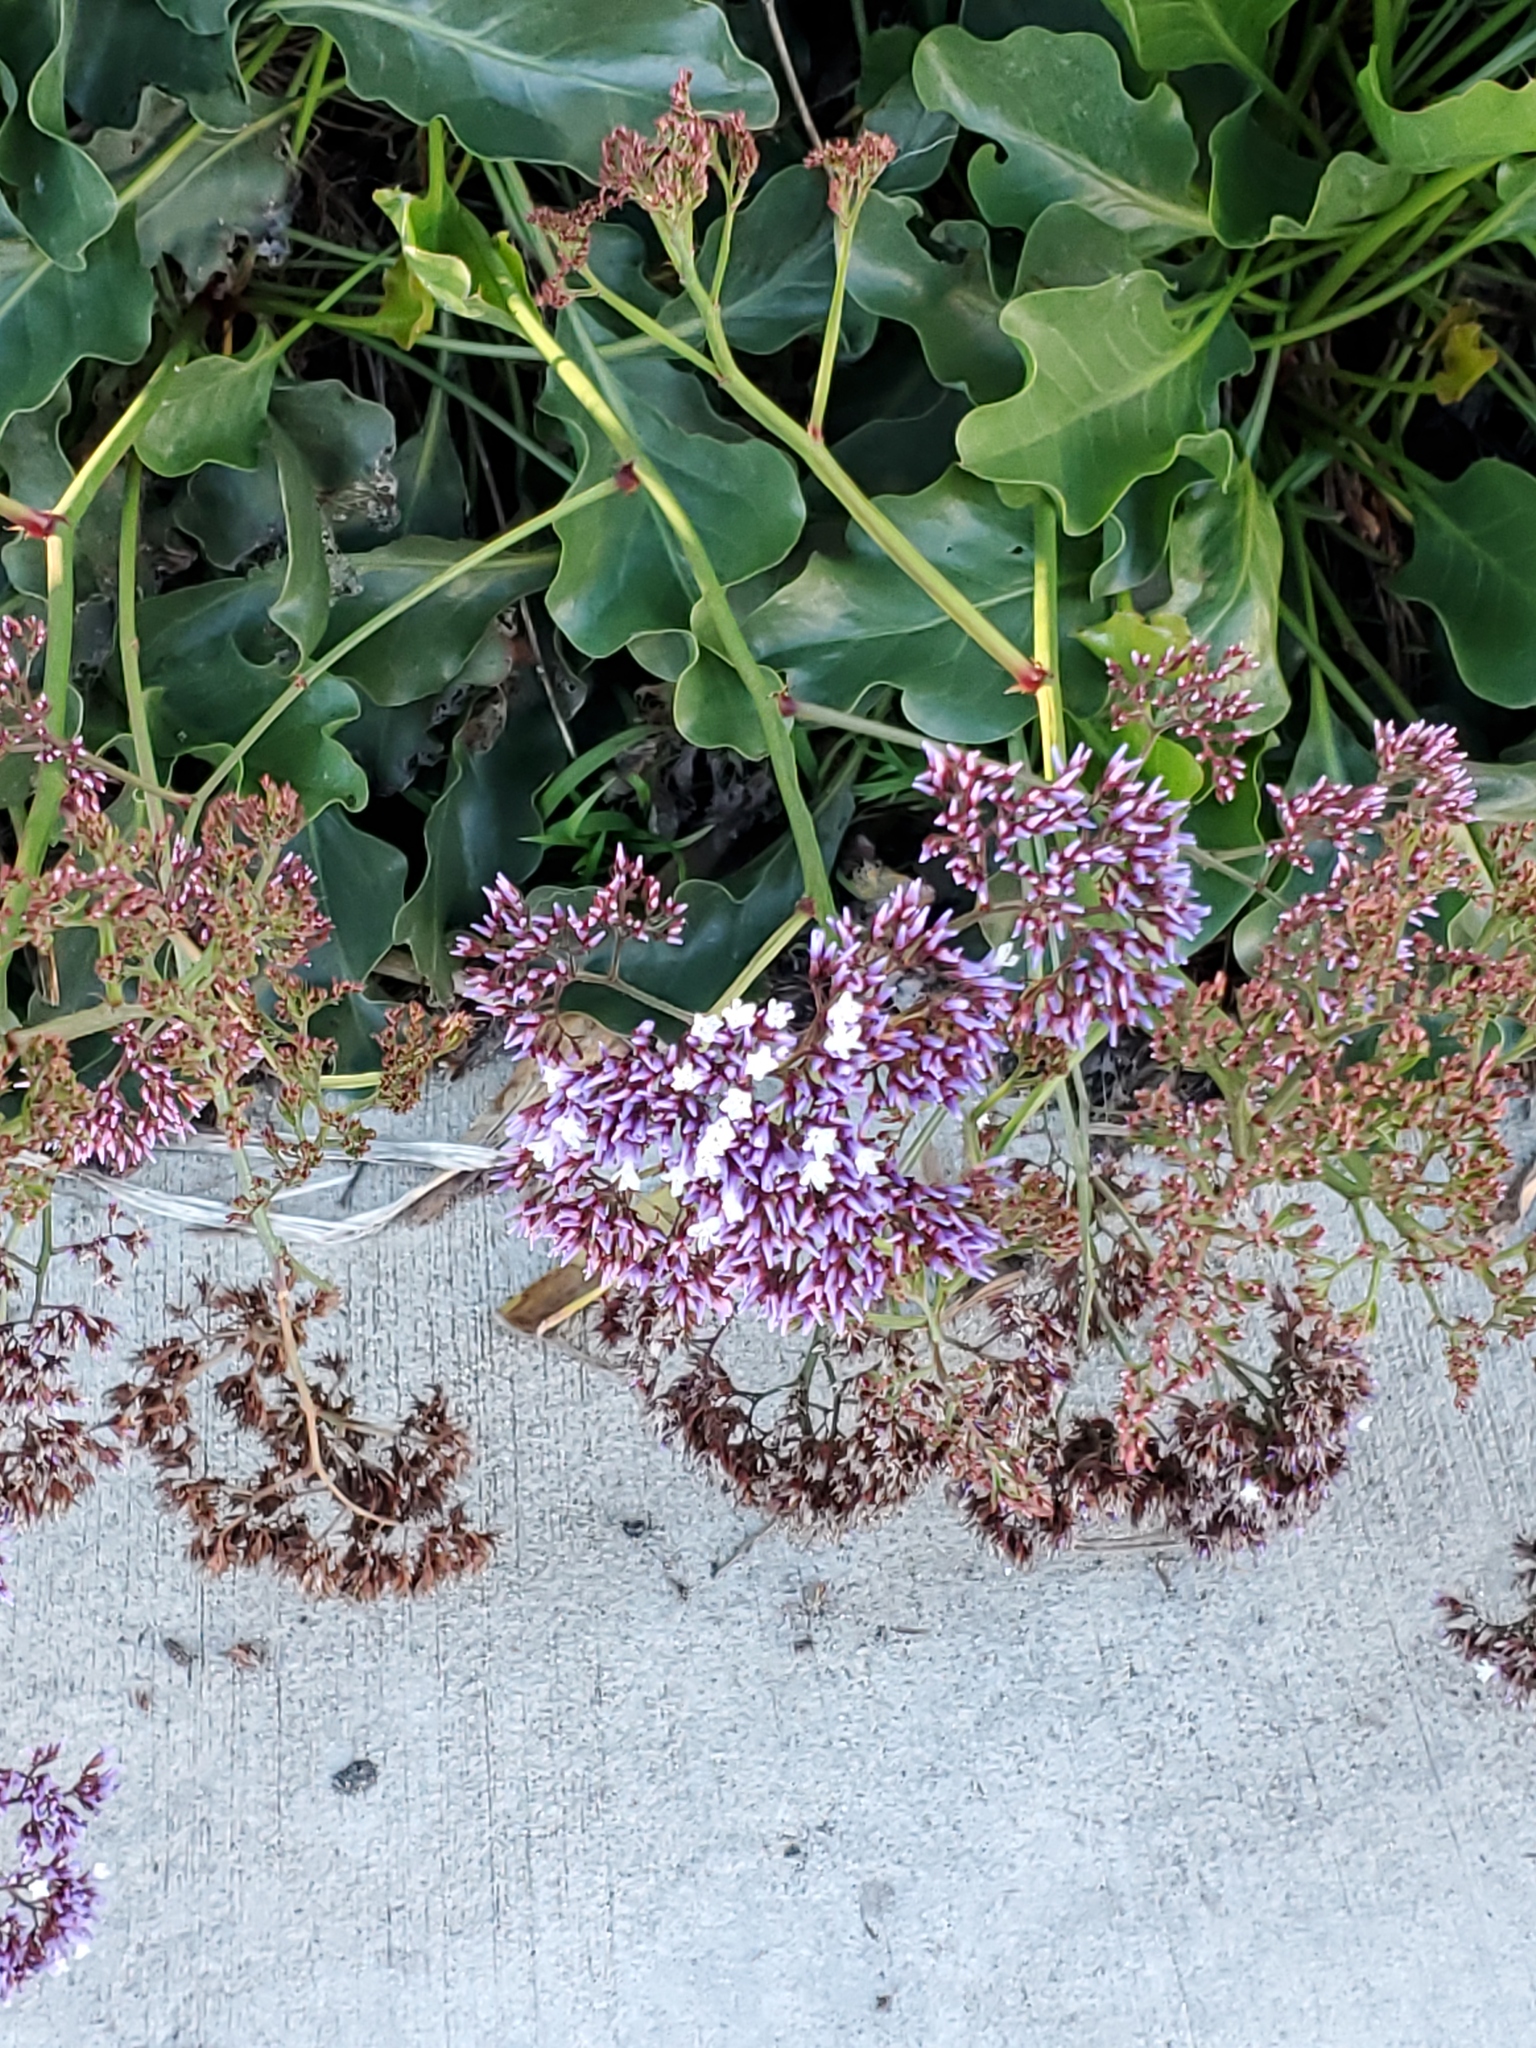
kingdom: Plantae
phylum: Tracheophyta
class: Magnoliopsida
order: Caryophyllales
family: Plumbaginaceae
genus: Limonium
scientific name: Limonium perezii
